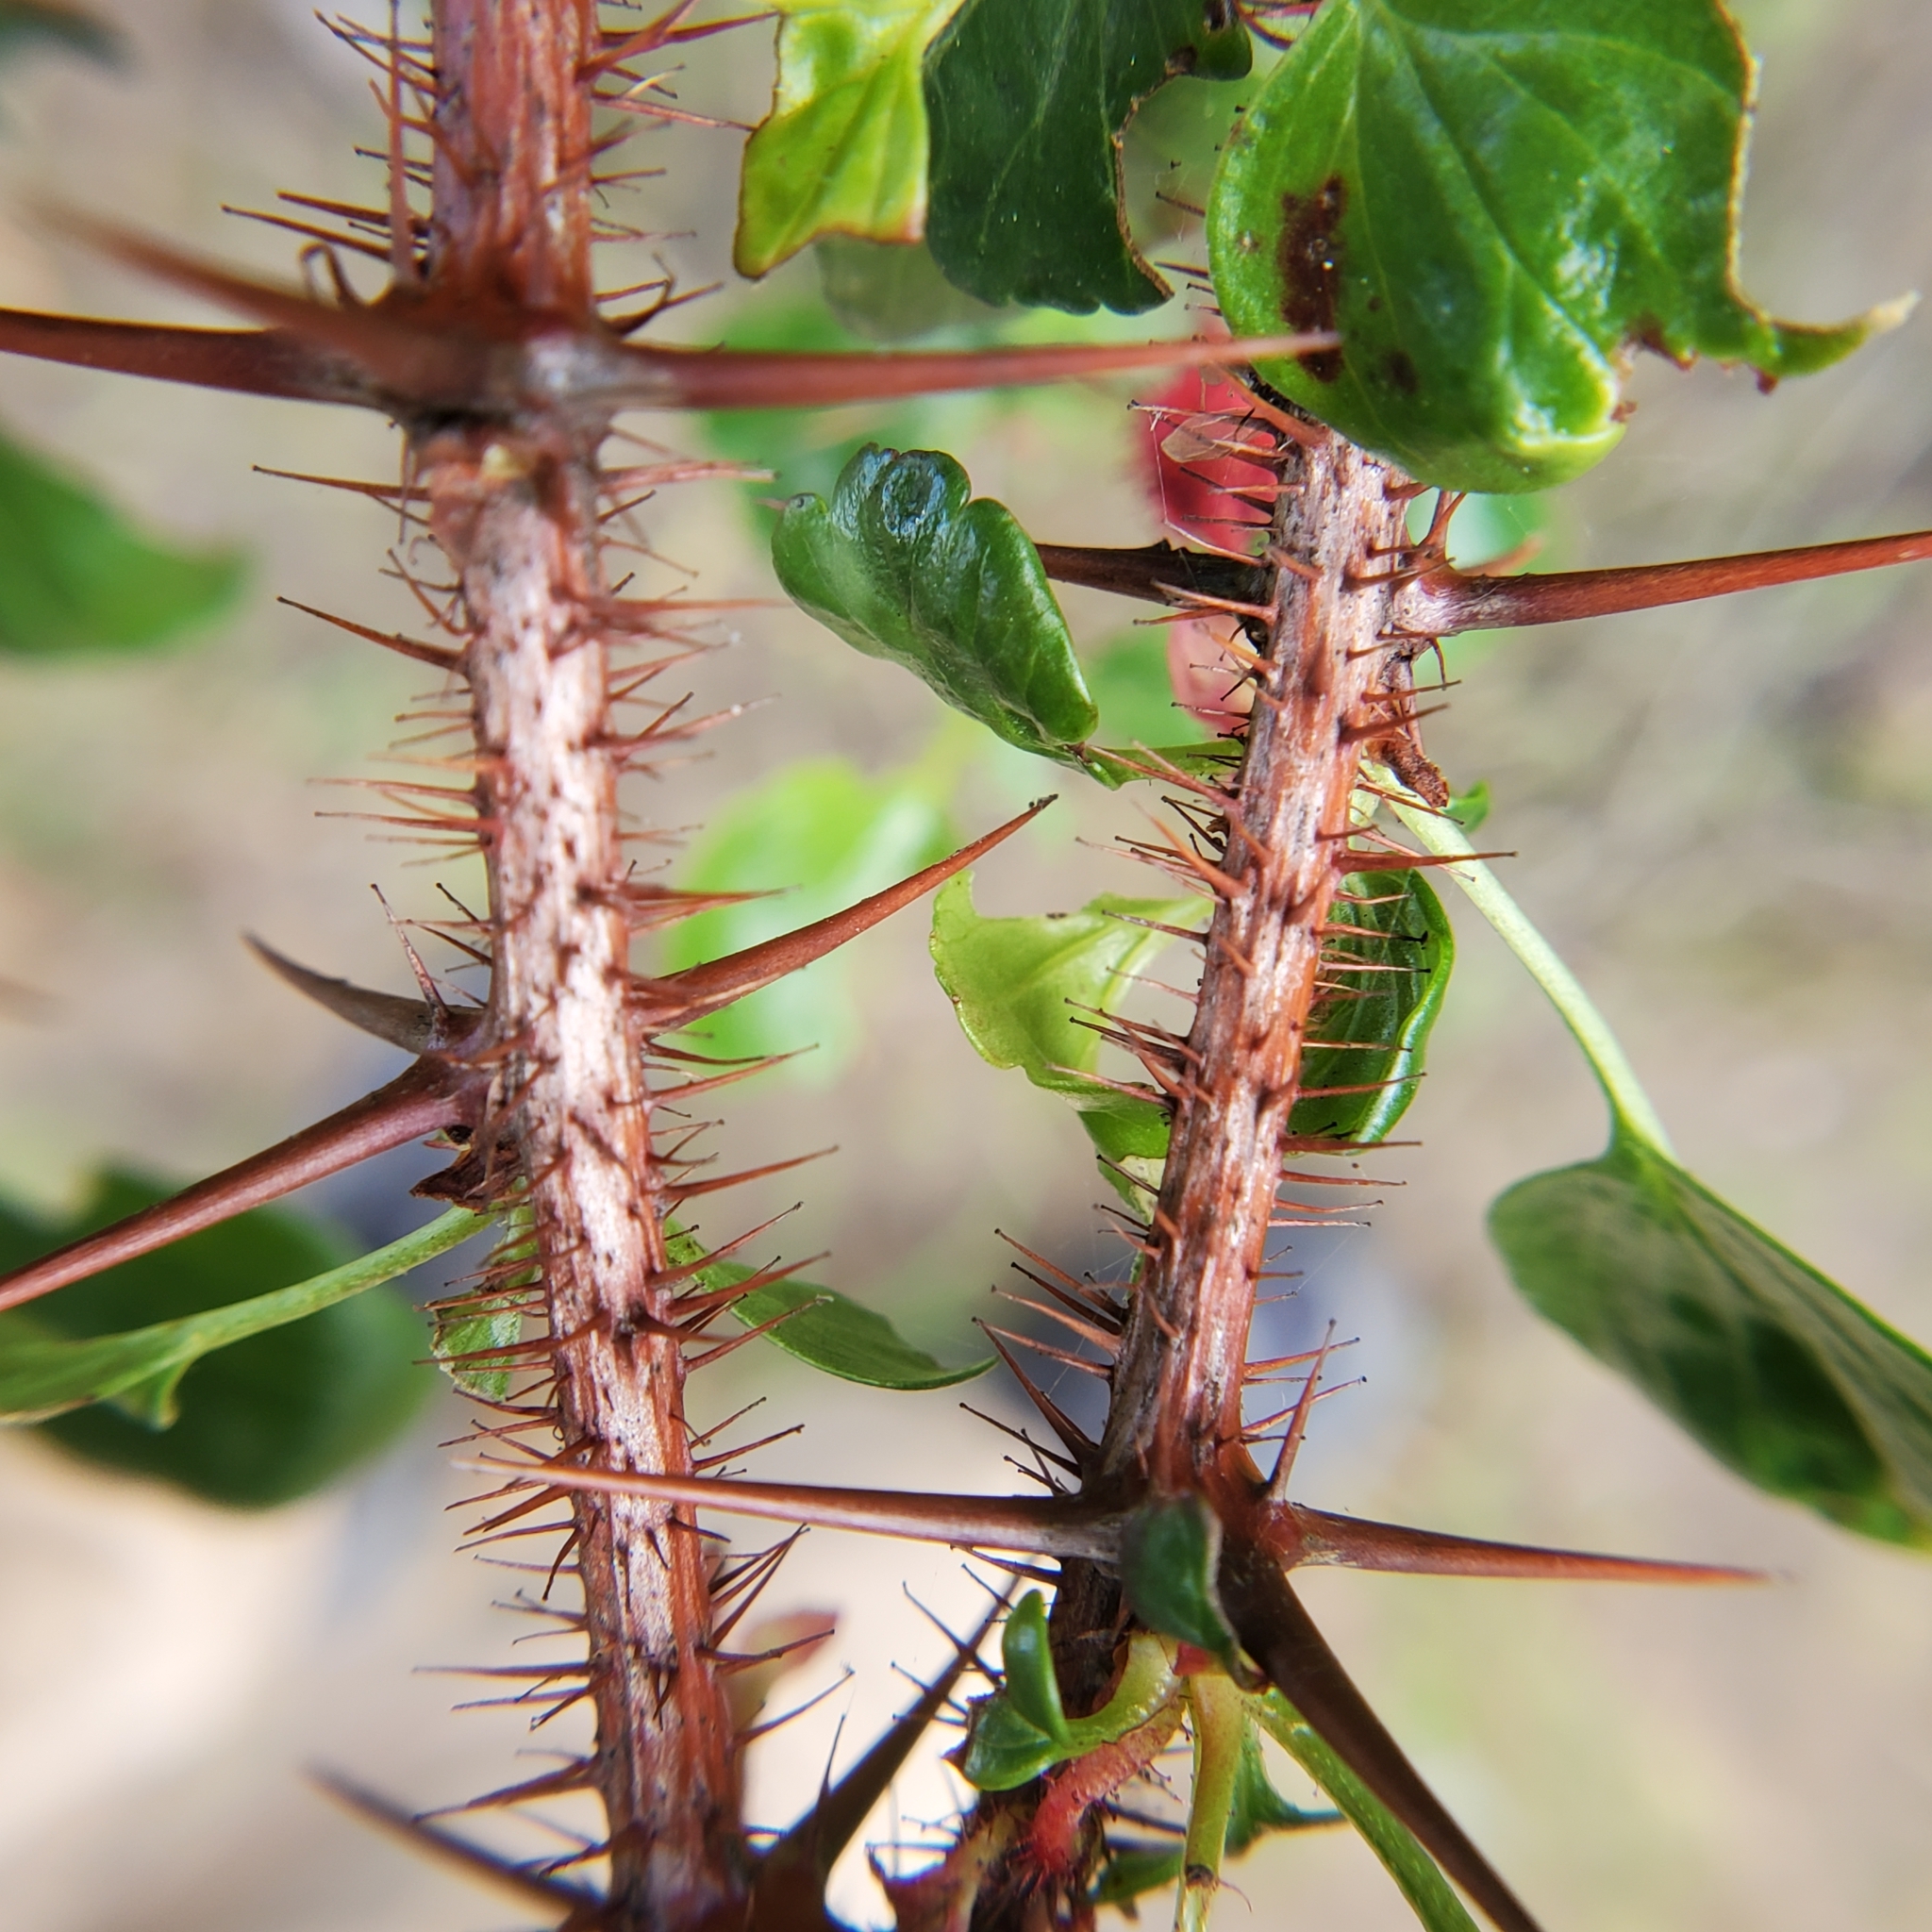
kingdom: Plantae
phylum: Tracheophyta
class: Magnoliopsida
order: Saxifragales
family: Grossulariaceae
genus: Ribes
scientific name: Ribes speciosum
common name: Fuchsia-flower gooseberry
